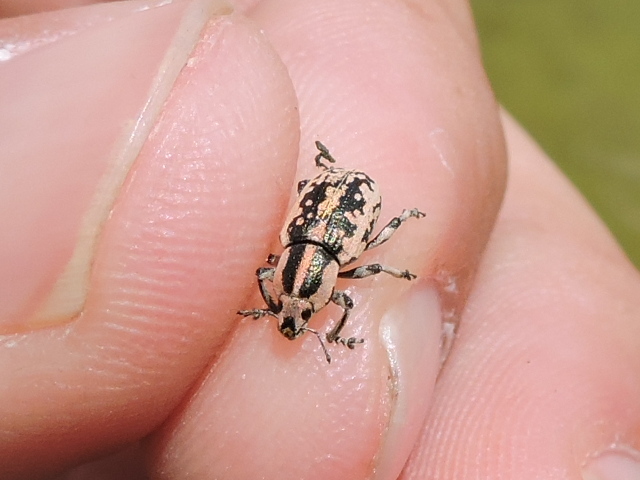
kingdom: Animalia
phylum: Arthropoda
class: Insecta
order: Coleoptera
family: Curculionidae
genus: Eudiagogus
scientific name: Eudiagogus rosenschoeldi
